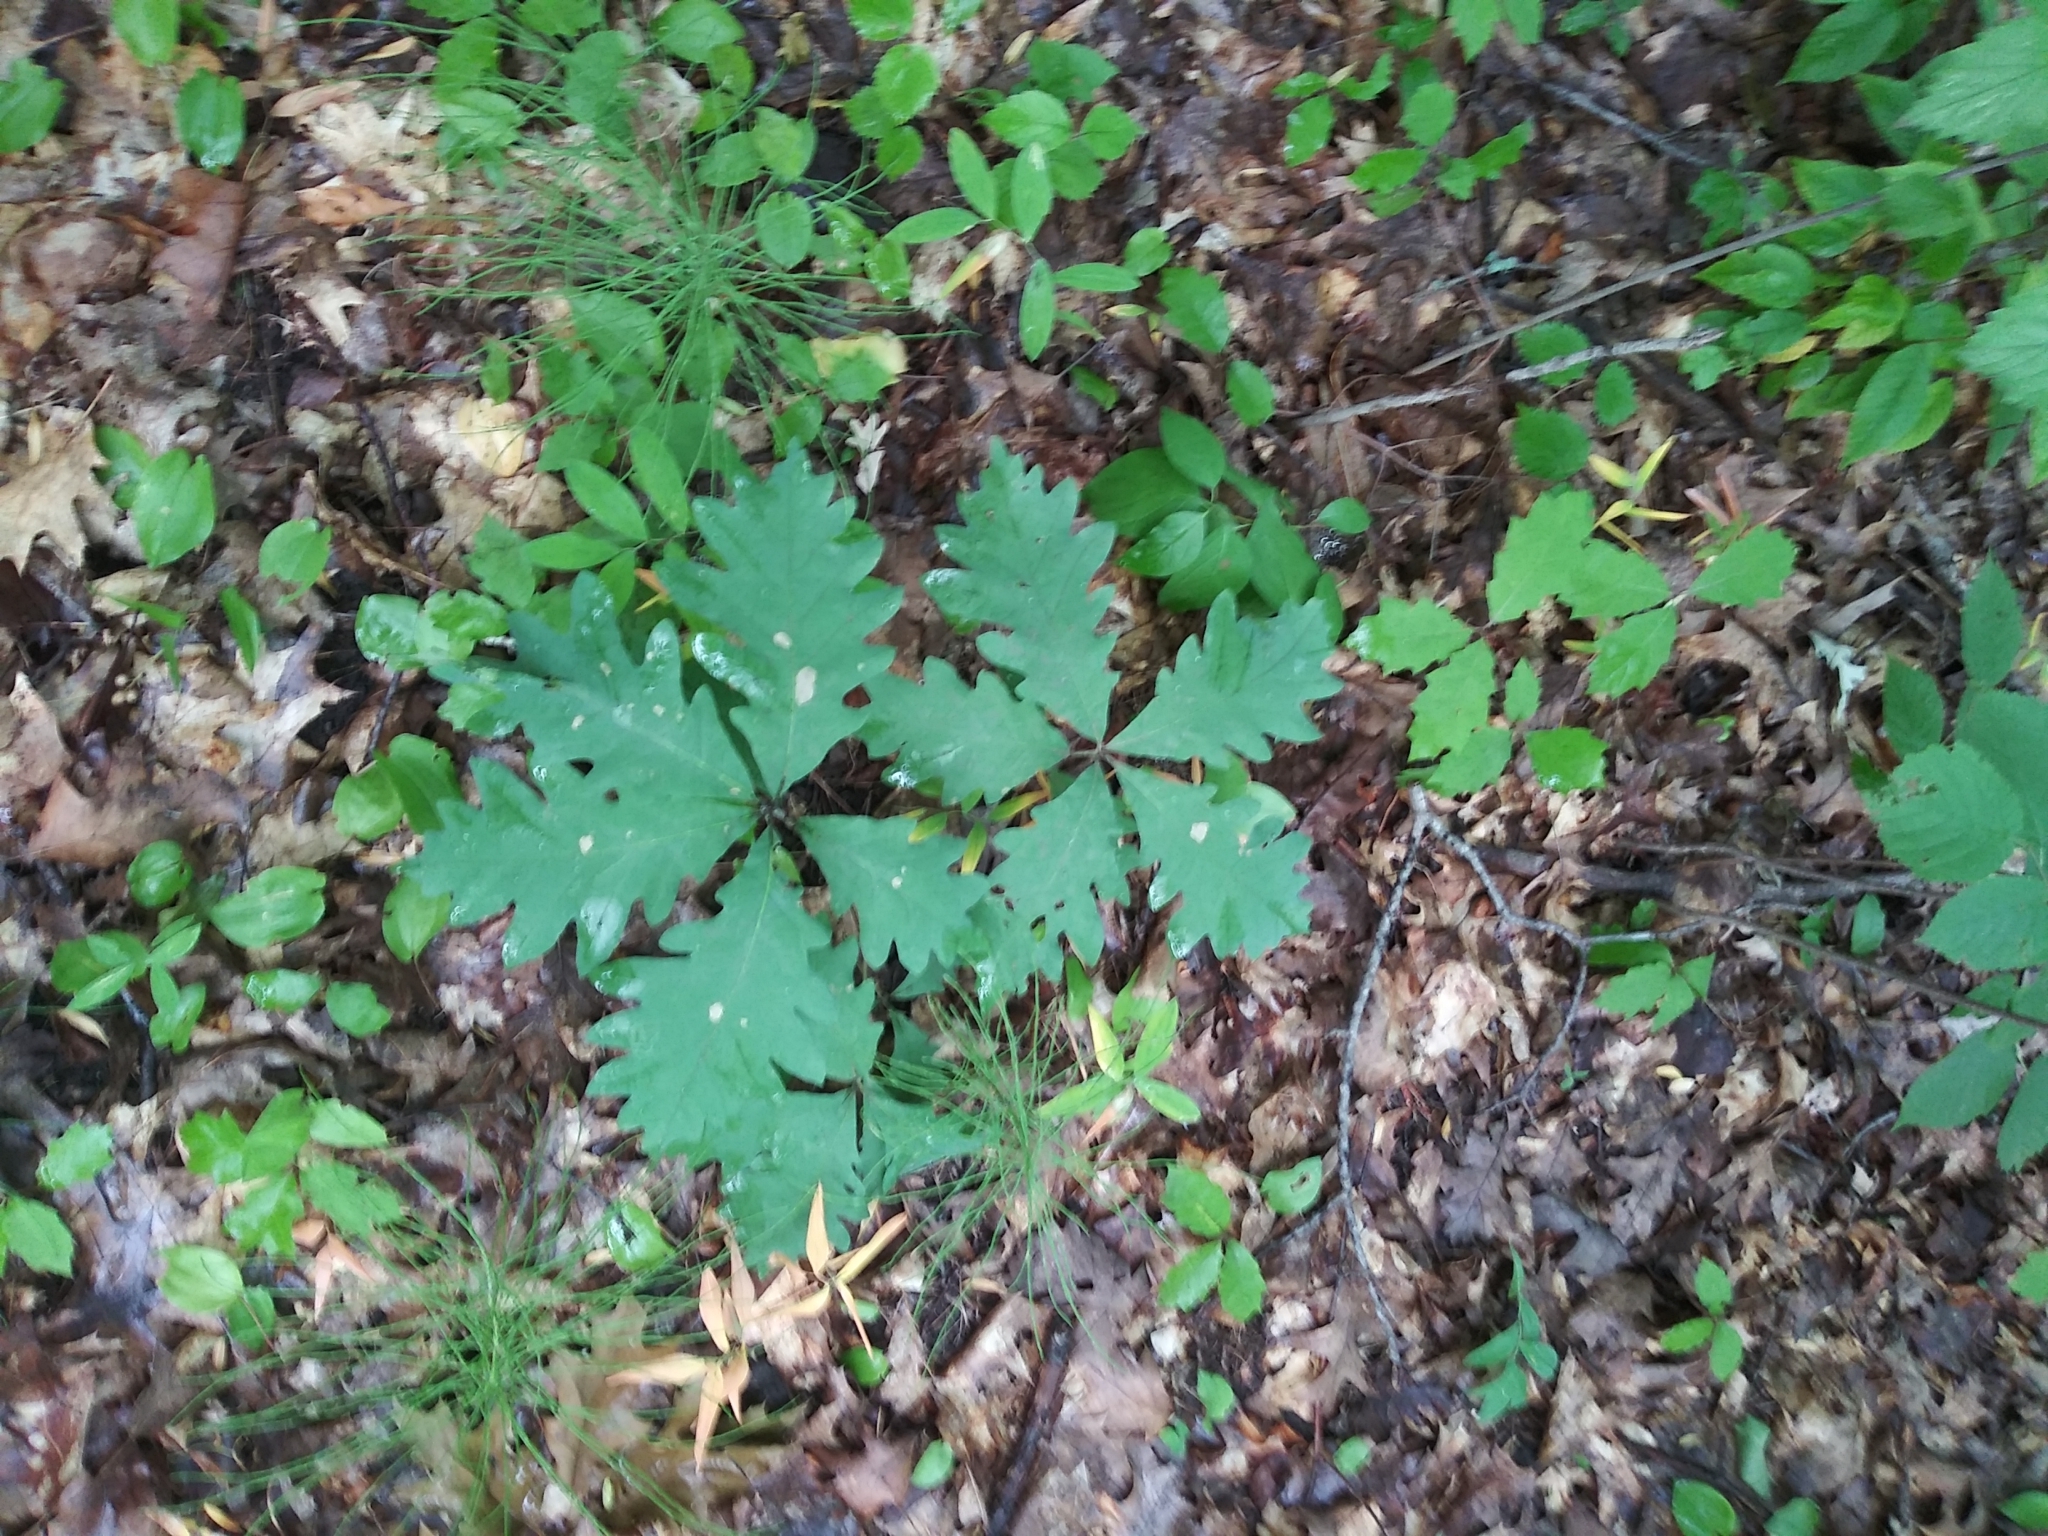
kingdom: Plantae
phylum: Tracheophyta
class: Magnoliopsida
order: Fagales
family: Fagaceae
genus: Quercus
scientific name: Quercus alba
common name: White oak
